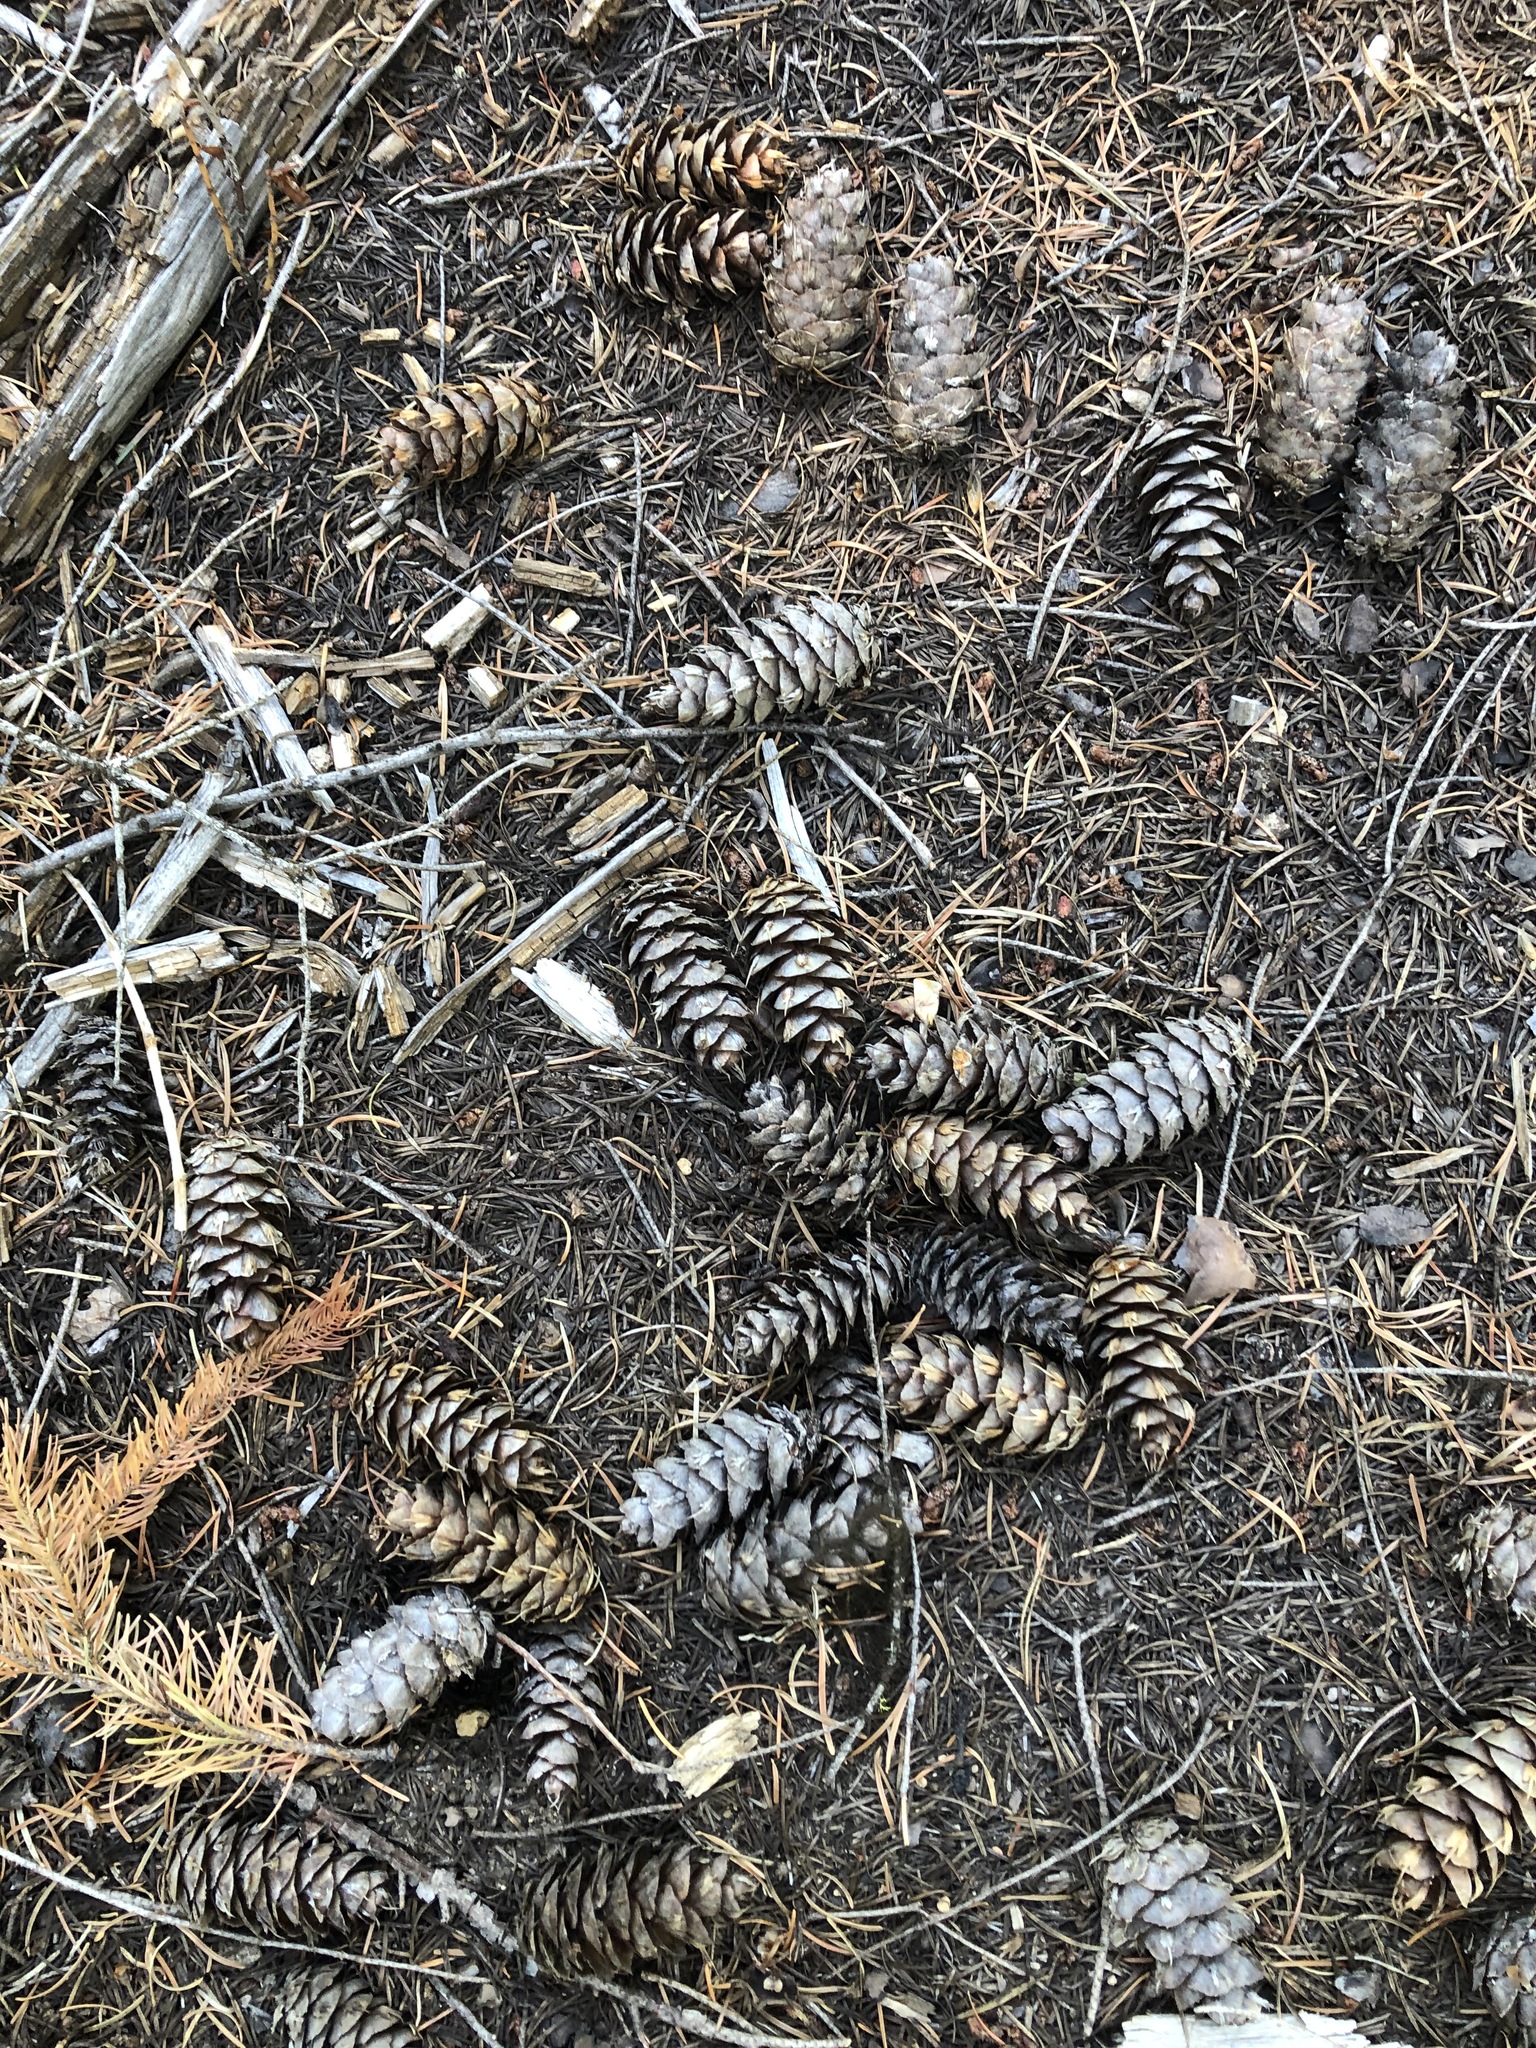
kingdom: Plantae
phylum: Tracheophyta
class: Pinopsida
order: Pinales
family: Pinaceae
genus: Pseudotsuga
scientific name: Pseudotsuga menziesii
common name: Douglas fir
